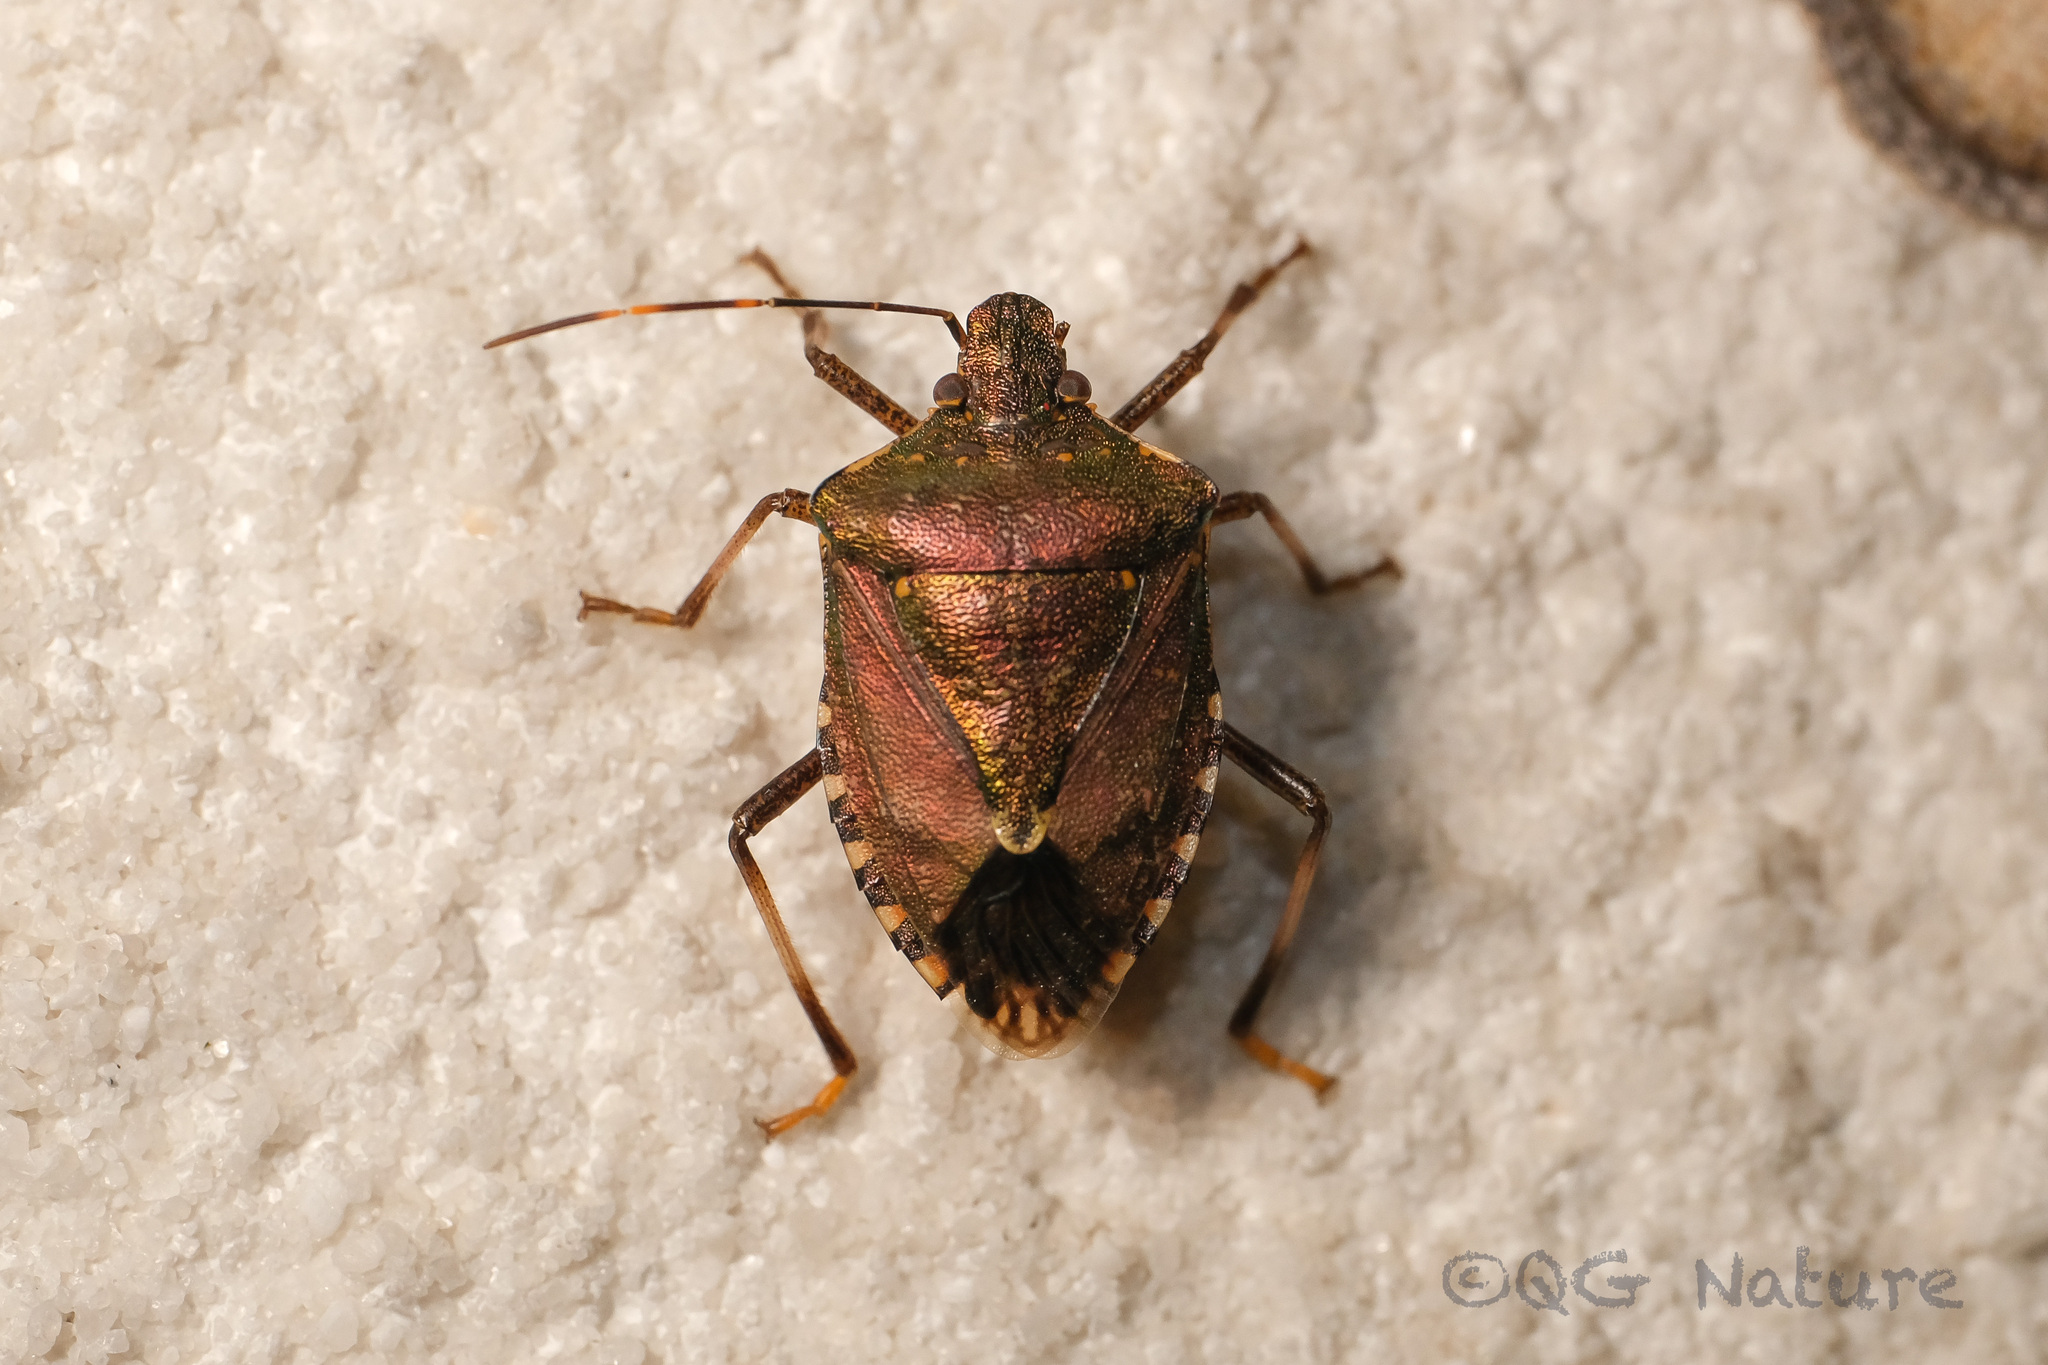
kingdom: Animalia
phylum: Arthropoda
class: Insecta
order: Hemiptera
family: Pentatomidae
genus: Halyomorpha
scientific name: Halyomorpha halys
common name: Brown marmorated stink bug
